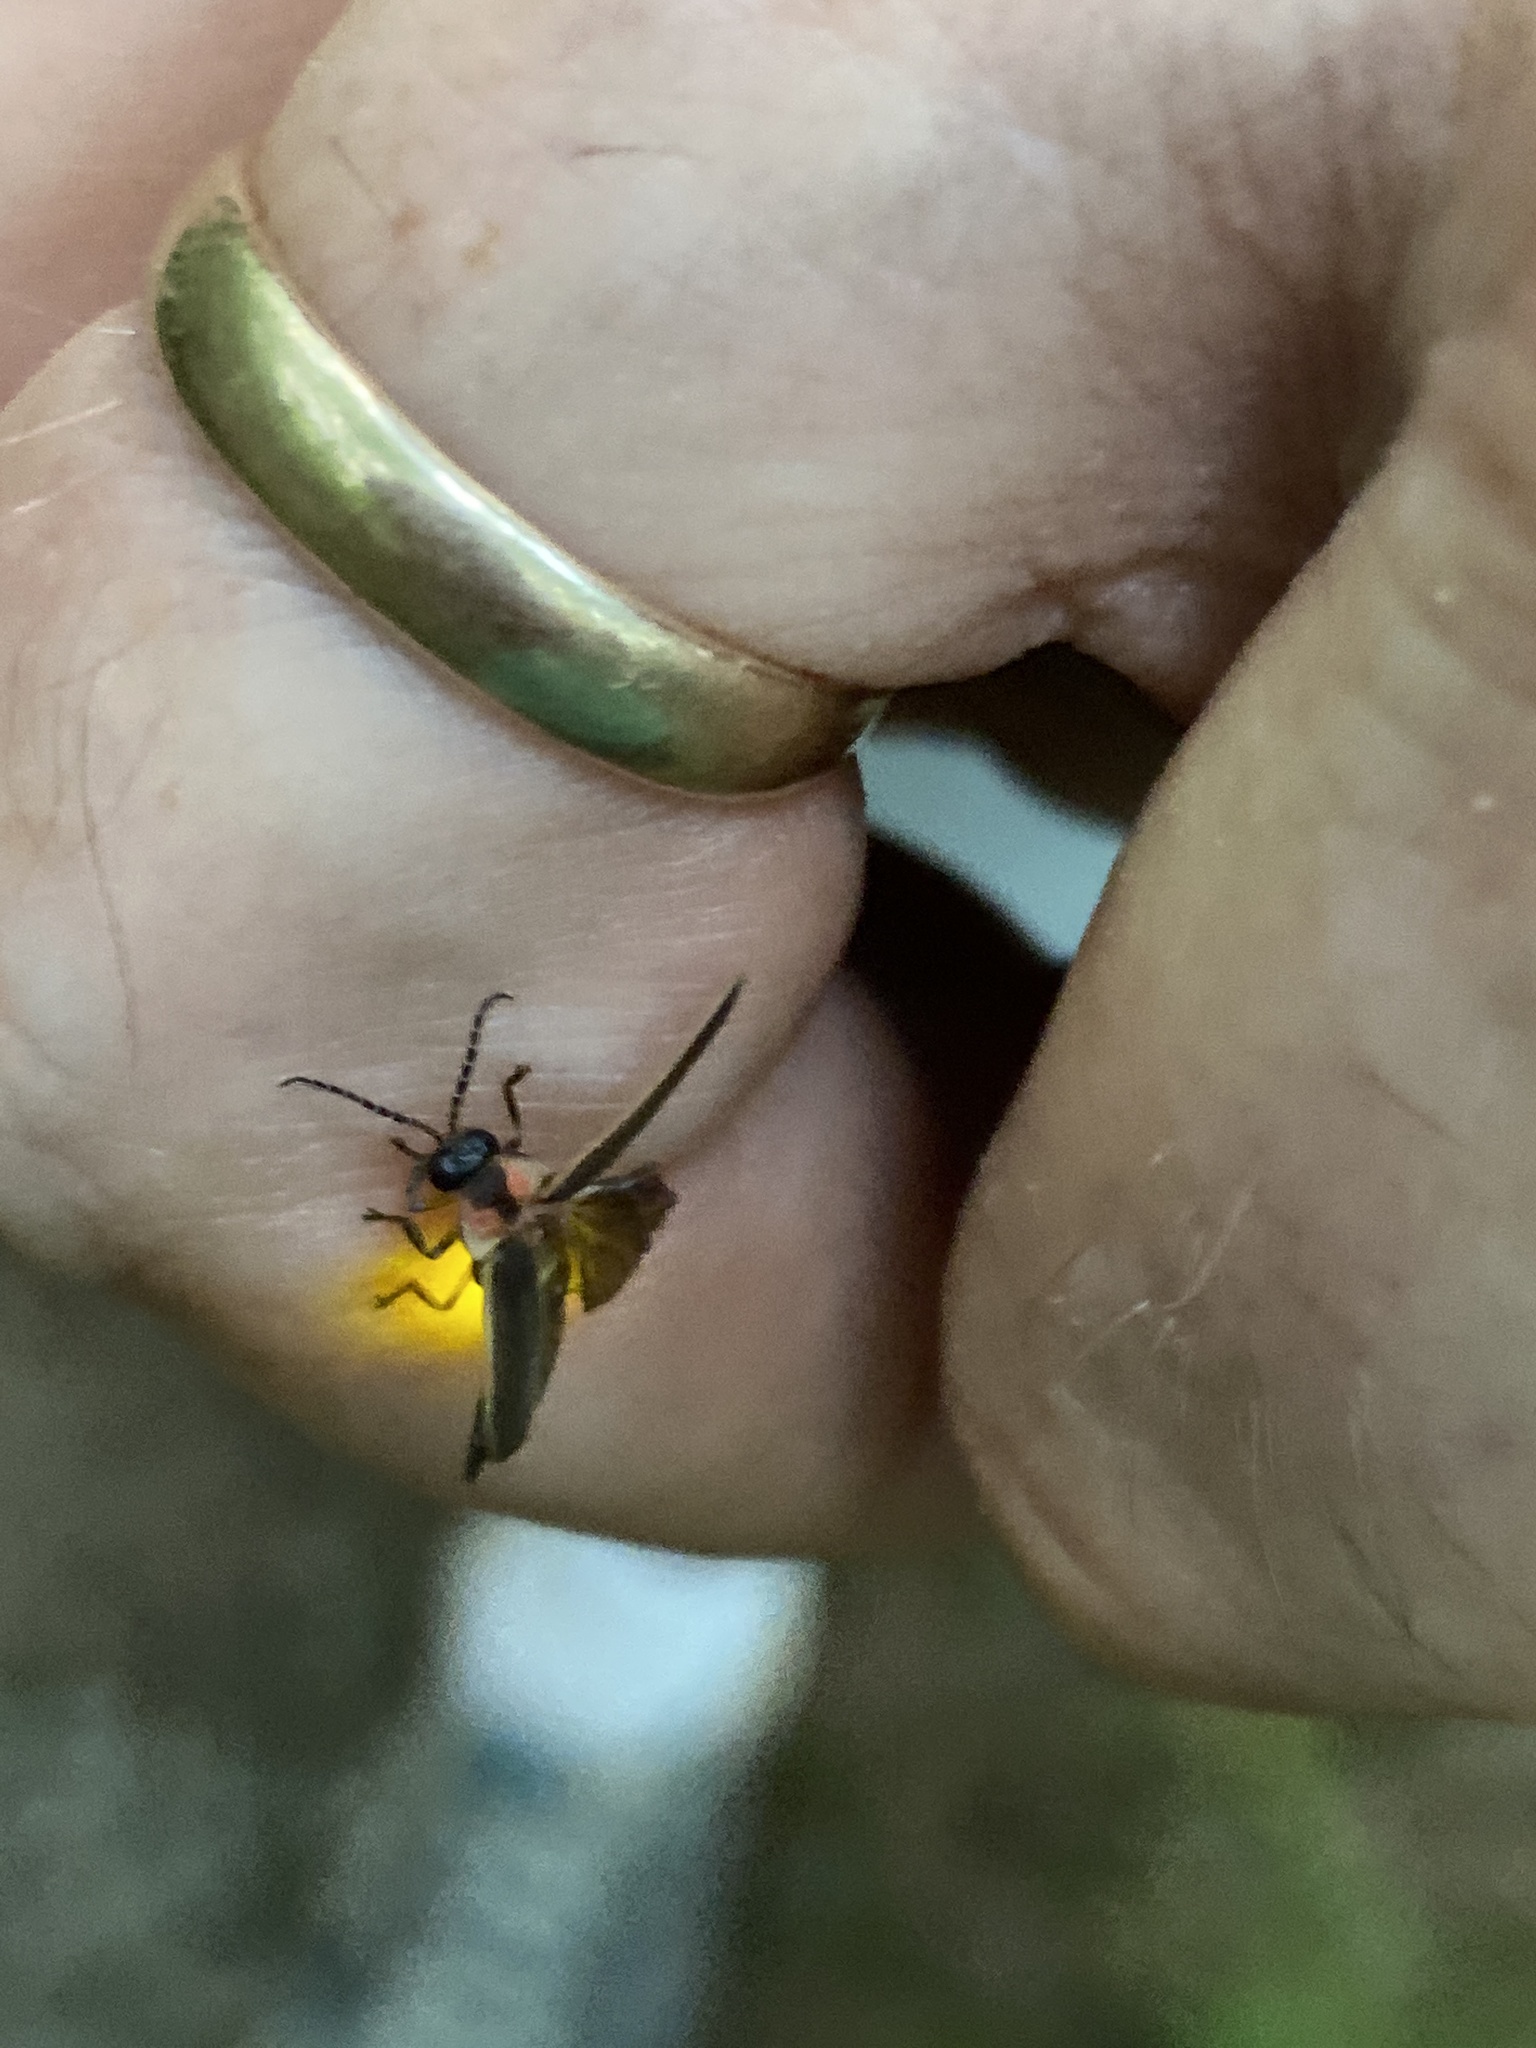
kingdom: Animalia
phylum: Arthropoda
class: Insecta
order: Coleoptera
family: Lampyridae
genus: Photinus
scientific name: Photinus australis
